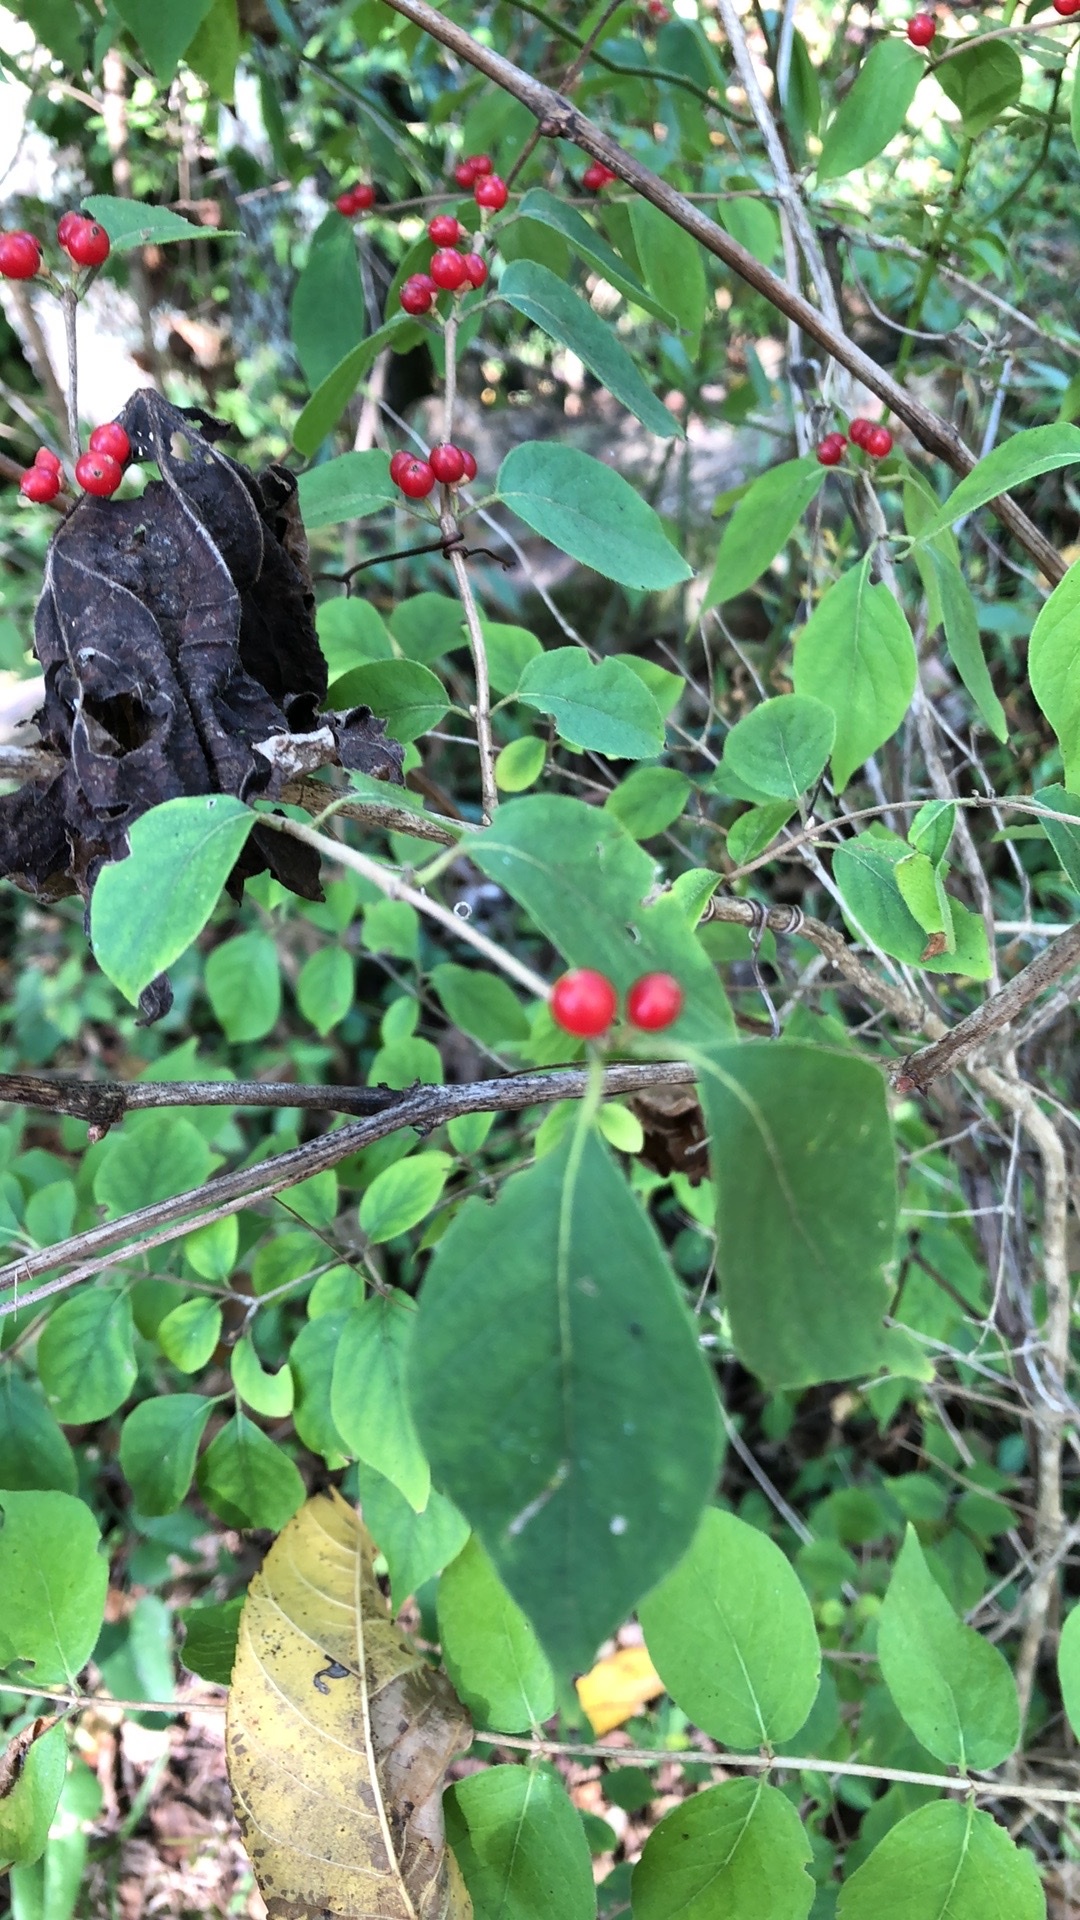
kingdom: Plantae
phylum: Tracheophyta
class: Magnoliopsida
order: Dipsacales
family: Caprifoliaceae
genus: Lonicera
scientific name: Lonicera maackii
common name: Amur honeysuckle
